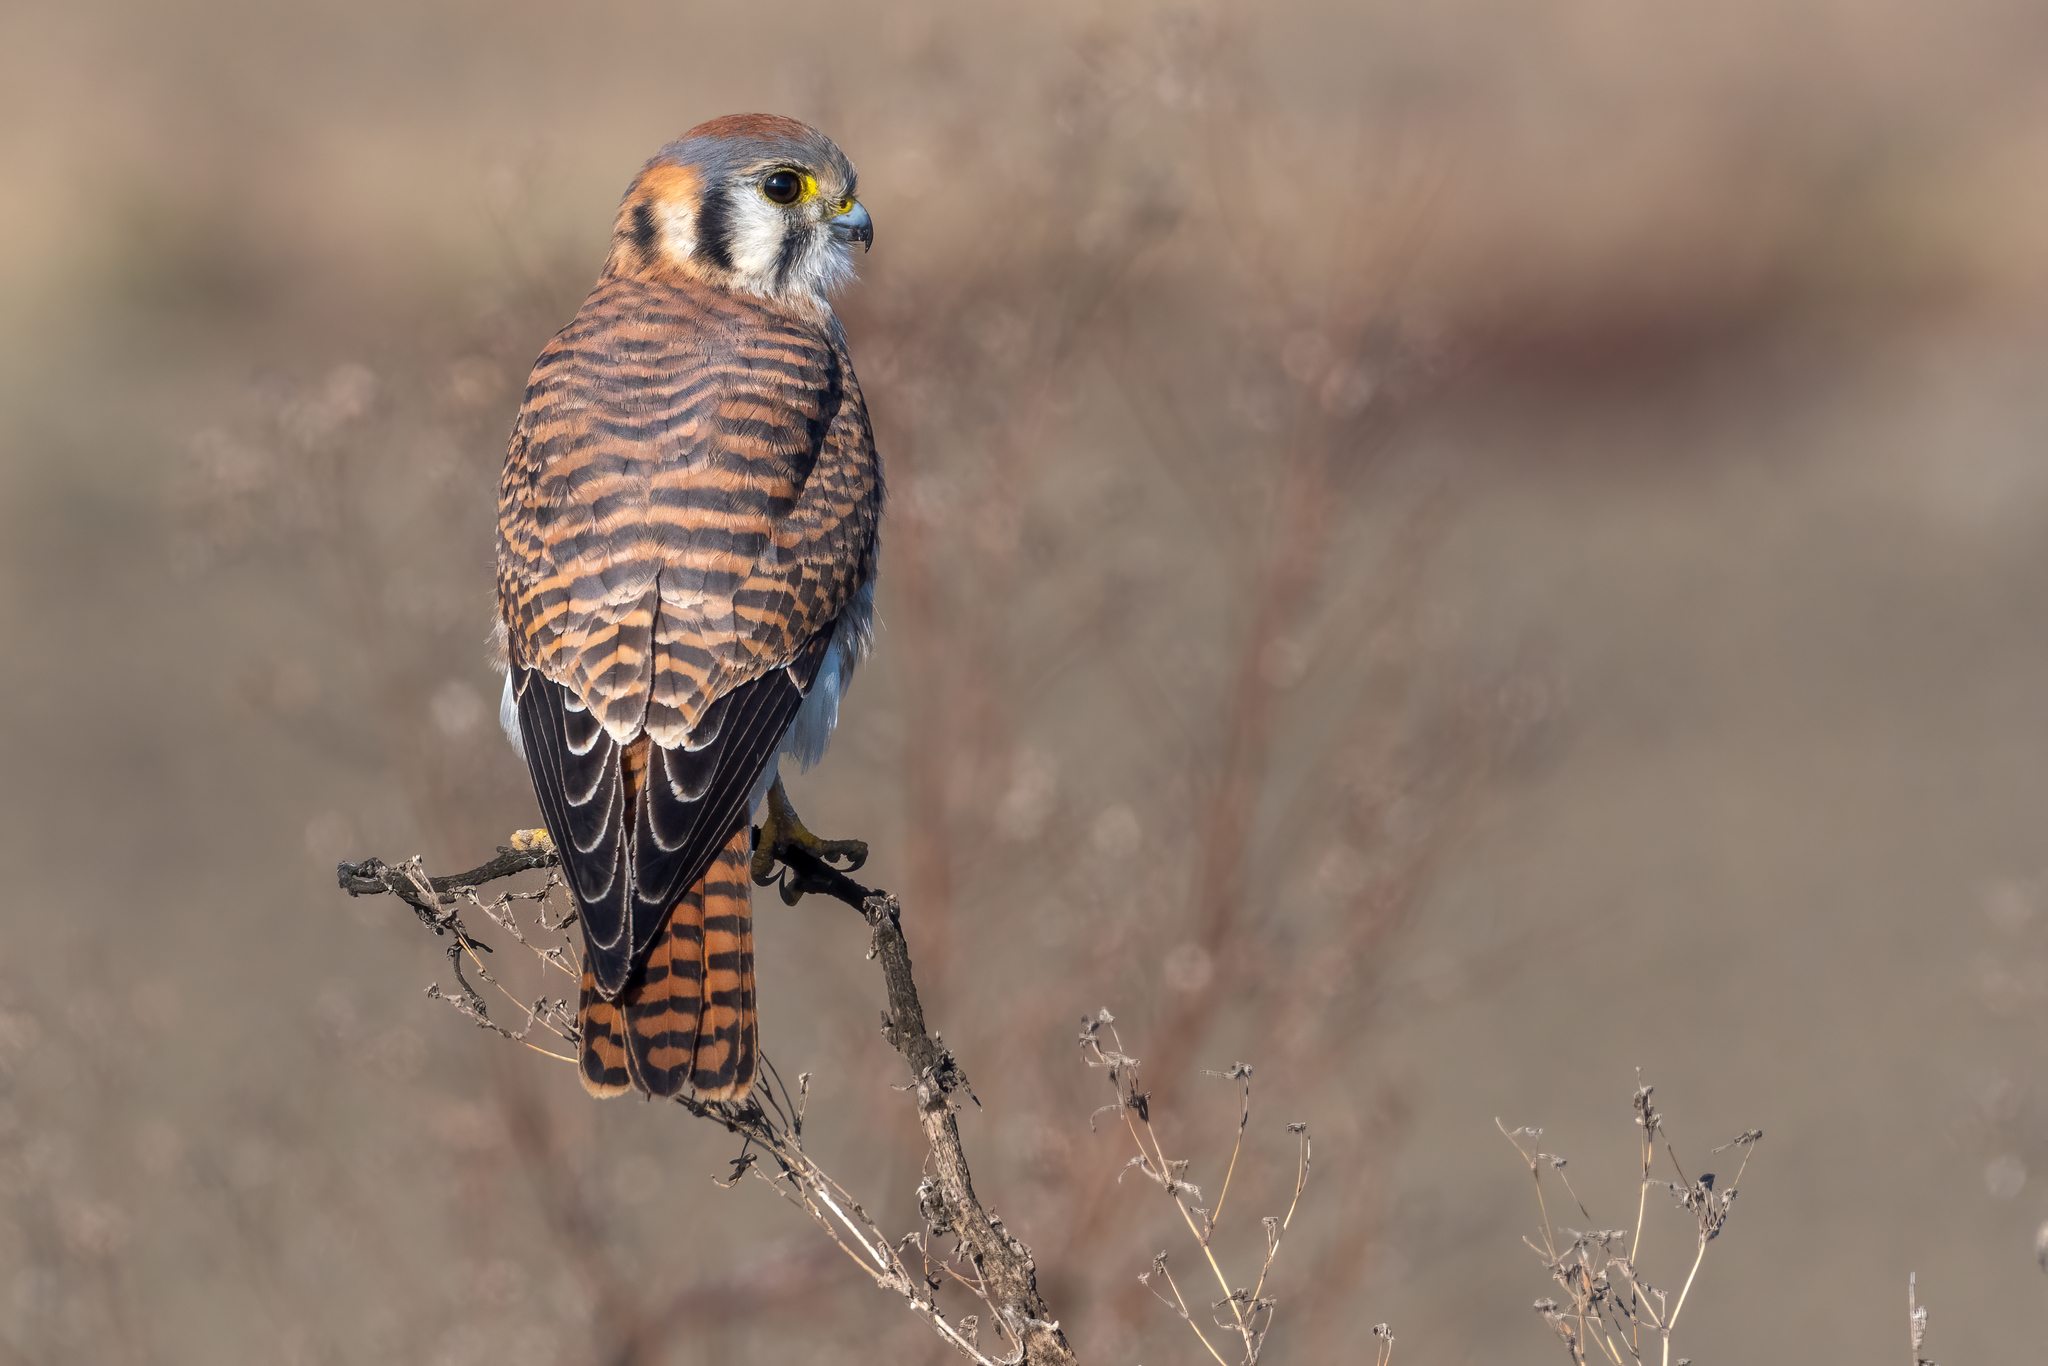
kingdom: Animalia
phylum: Chordata
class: Aves
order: Falconiformes
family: Falconidae
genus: Falco
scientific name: Falco sparverius
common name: American kestrel
